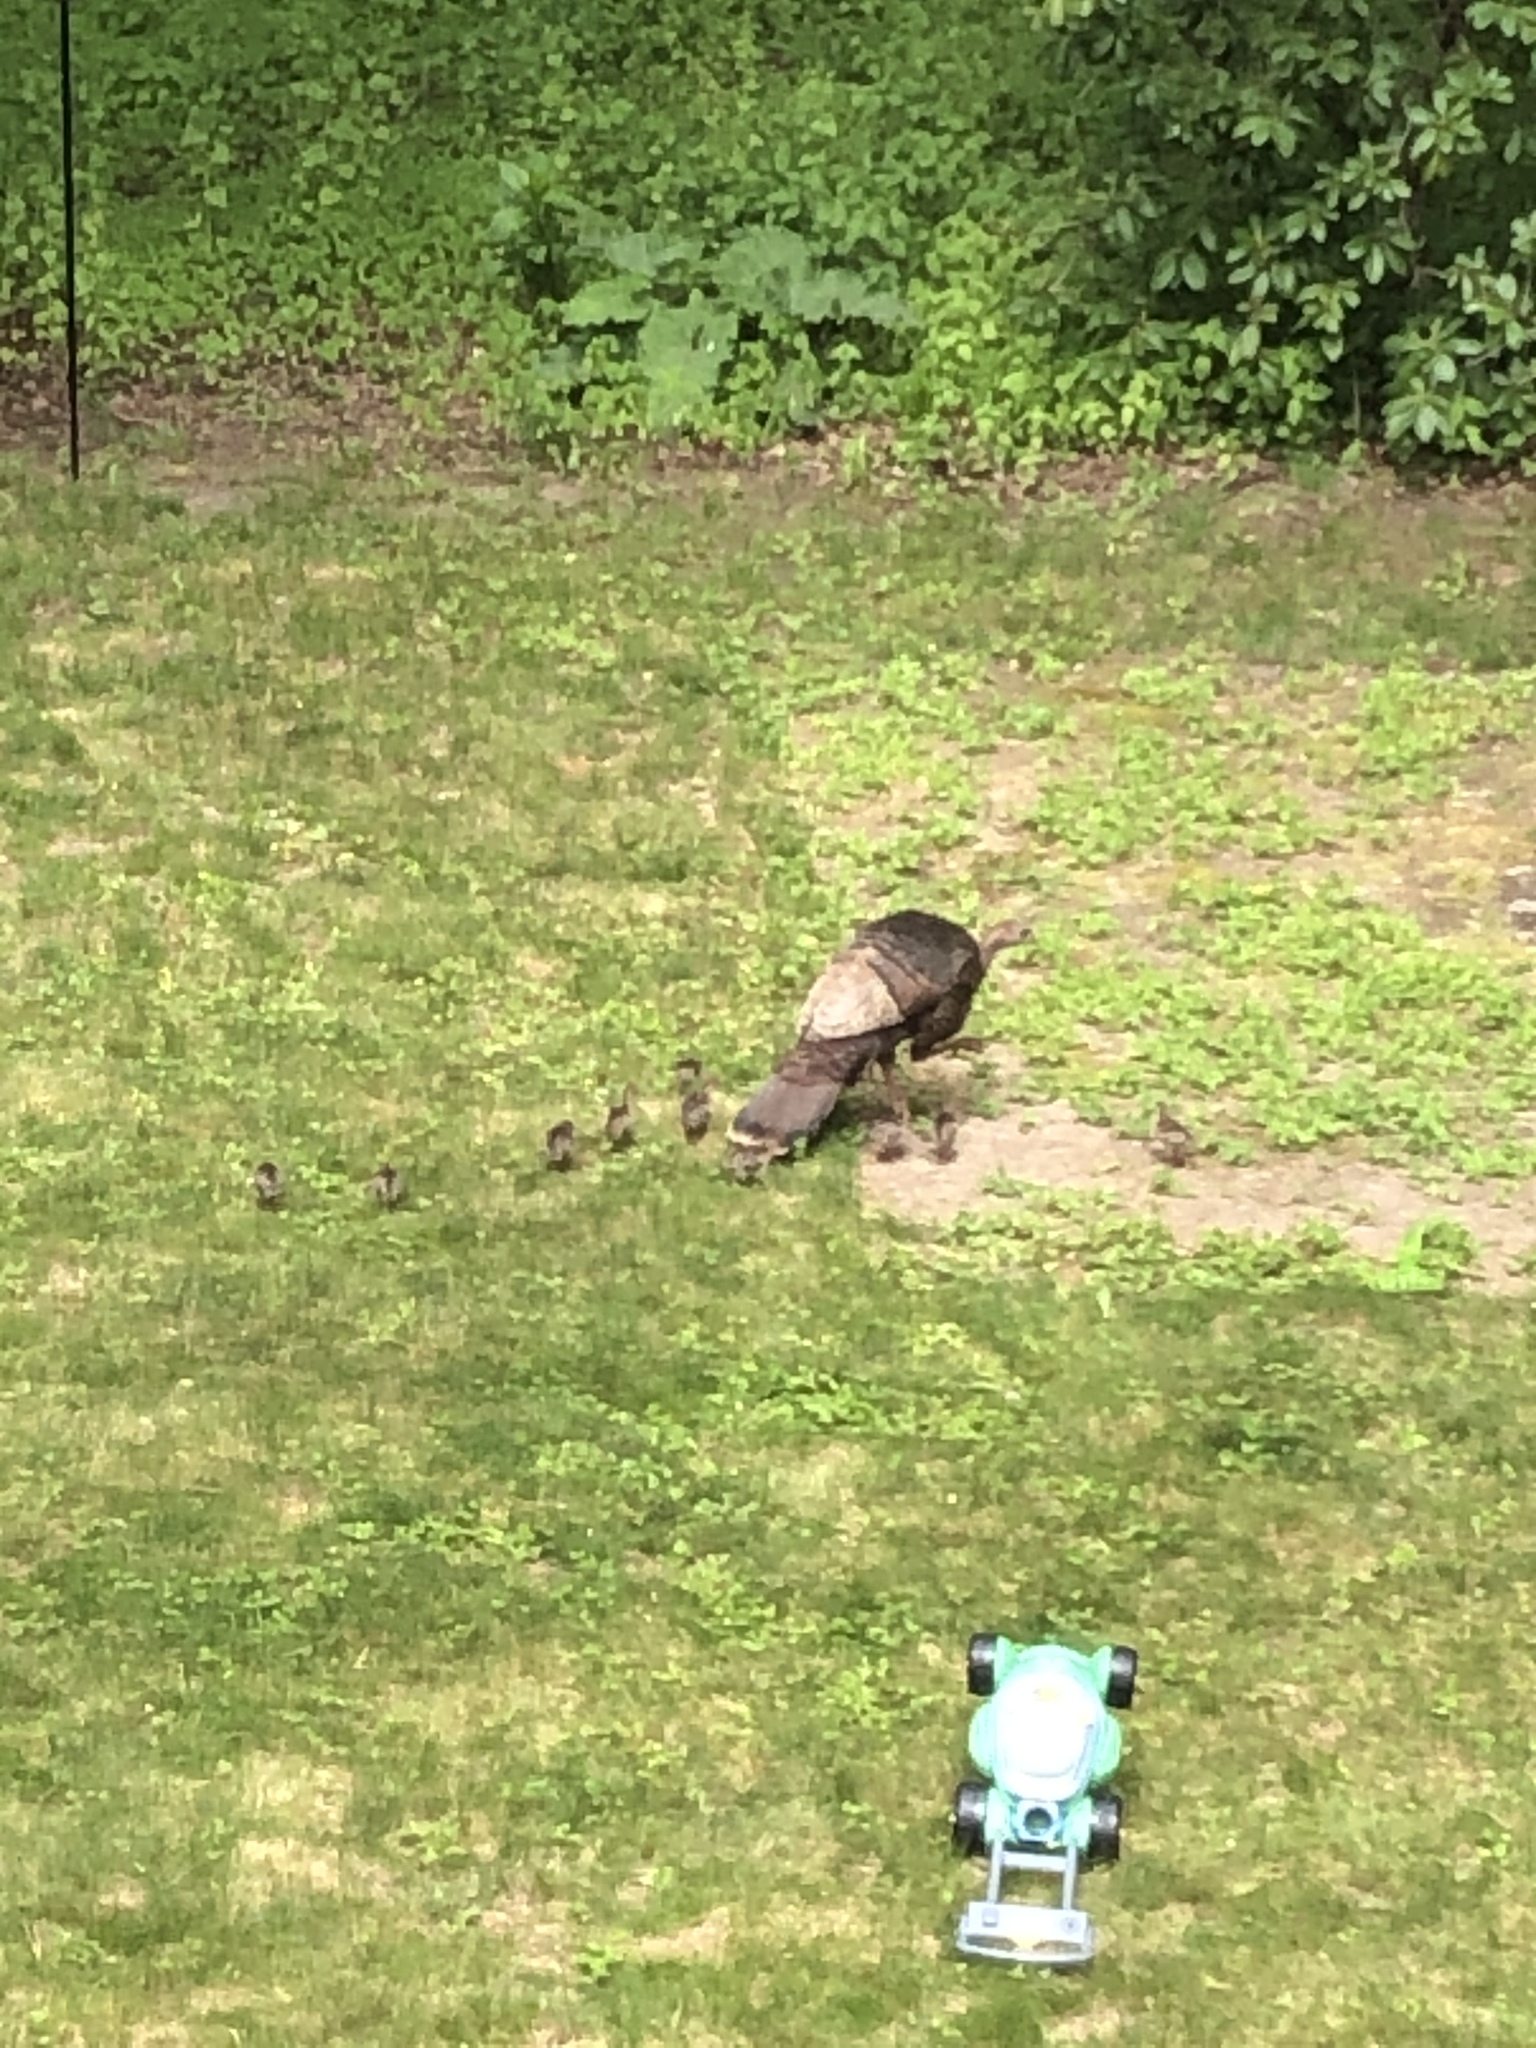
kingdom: Animalia
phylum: Chordata
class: Aves
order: Galliformes
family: Phasianidae
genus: Meleagris
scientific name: Meleagris gallopavo
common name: Wild turkey
